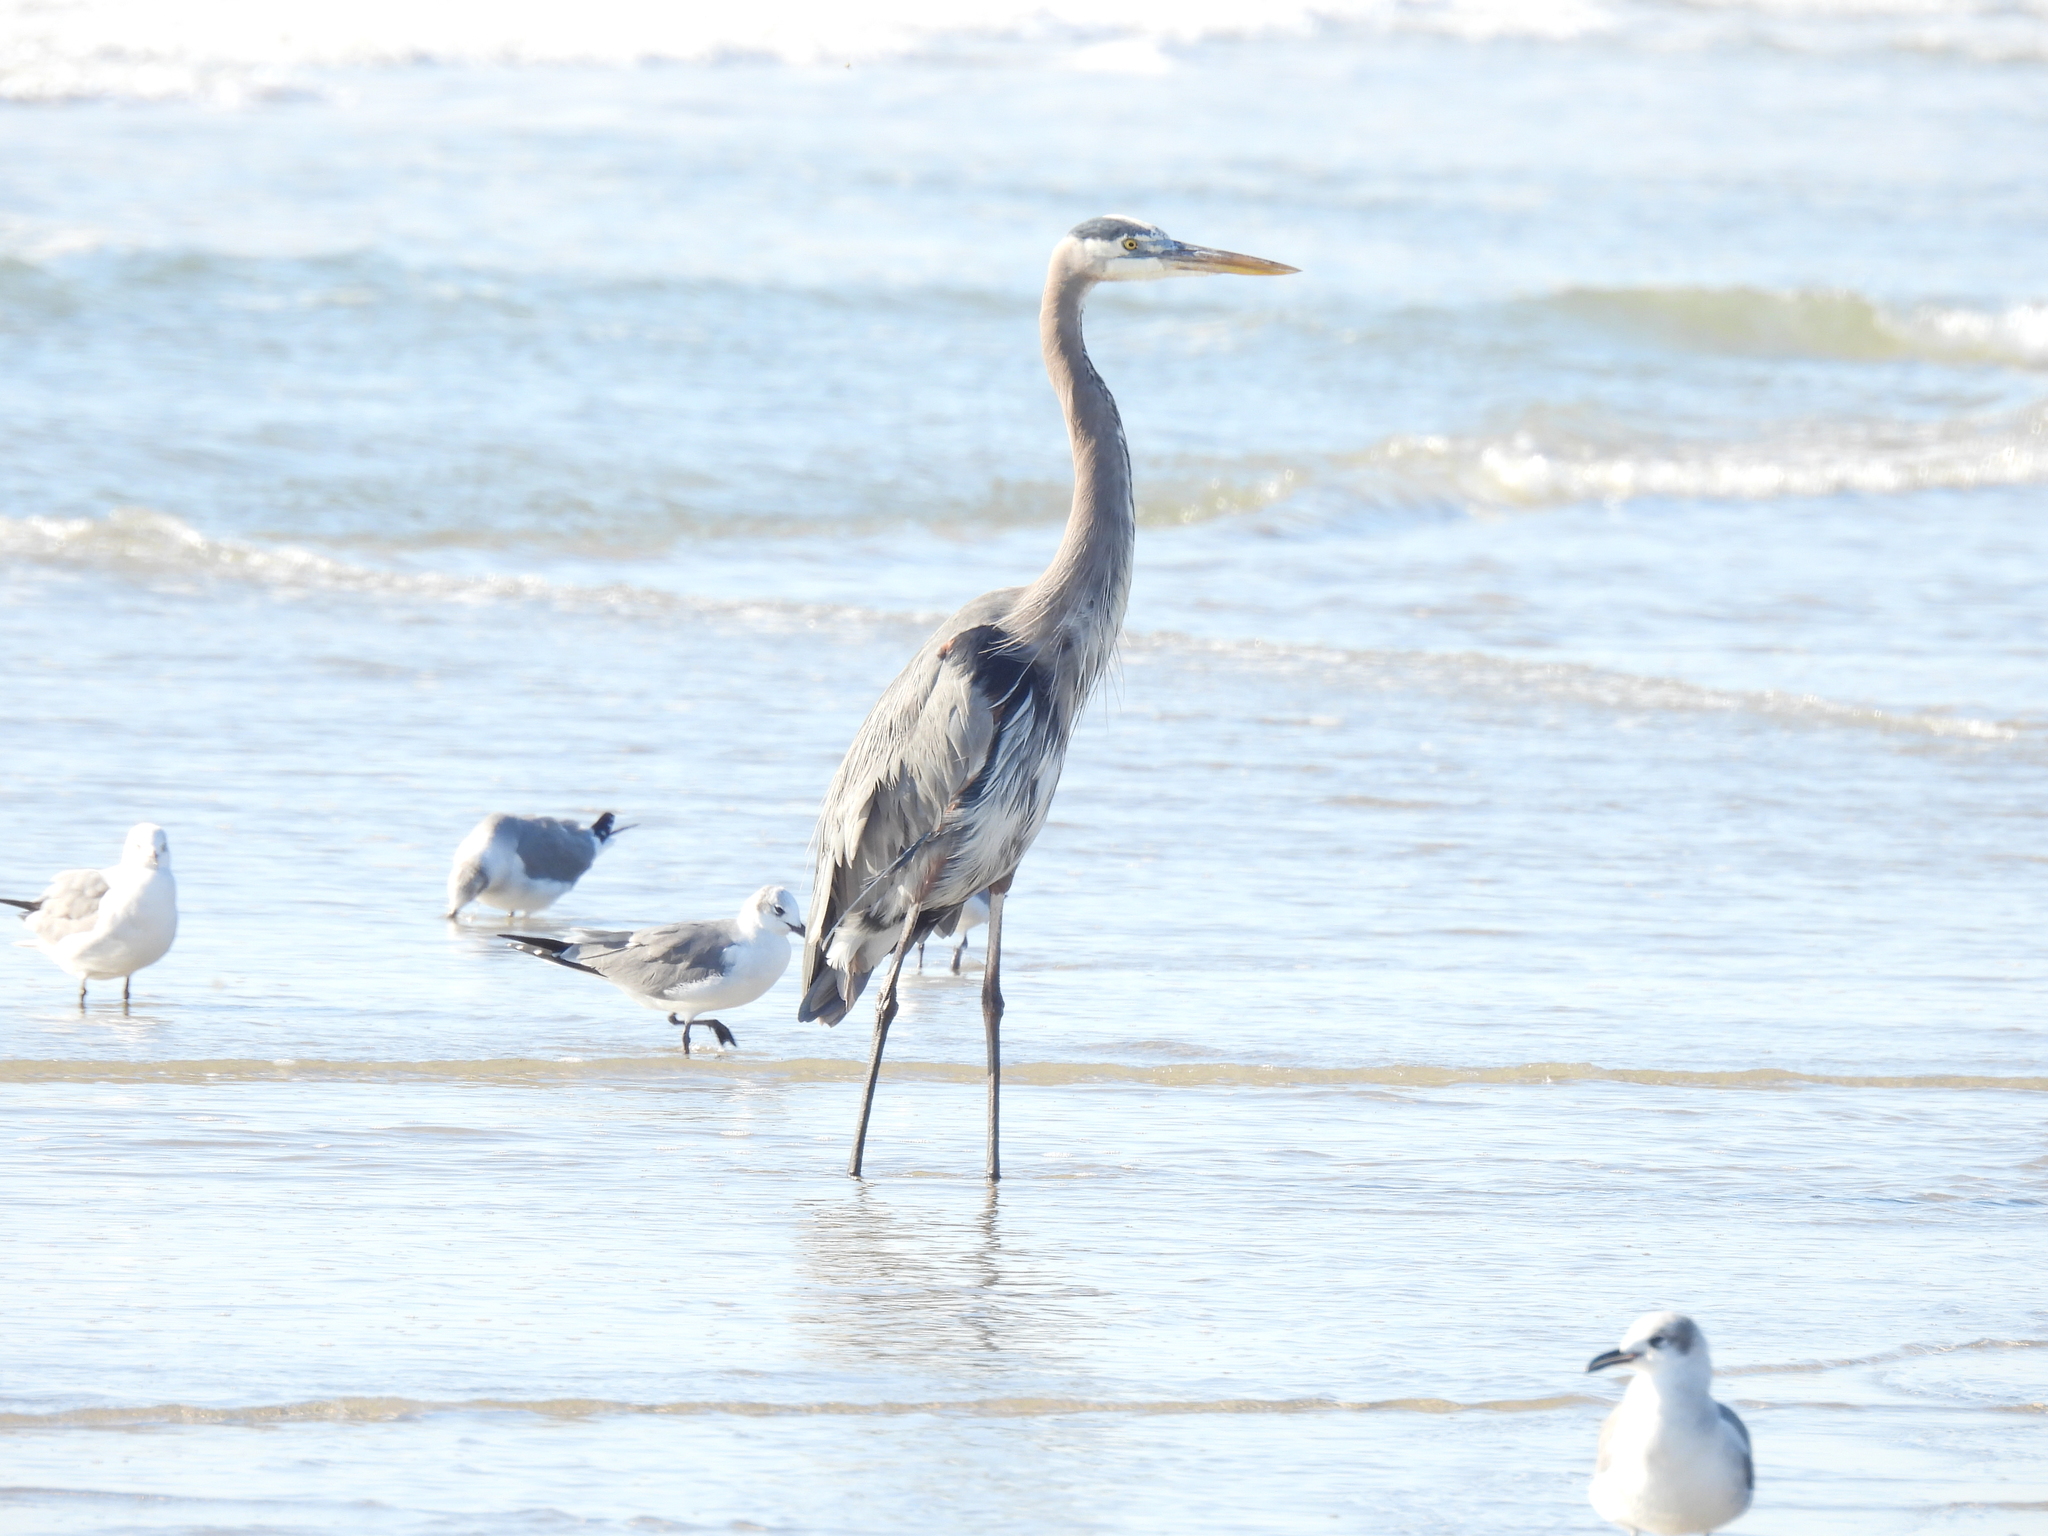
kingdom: Animalia
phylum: Chordata
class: Aves
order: Pelecaniformes
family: Ardeidae
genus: Ardea
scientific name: Ardea herodias
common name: Great blue heron
